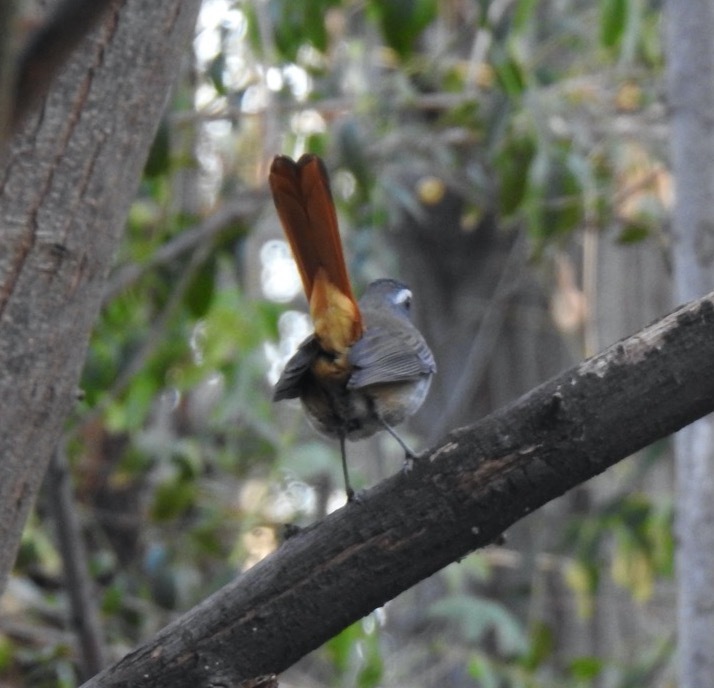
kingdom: Animalia
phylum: Chordata
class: Aves
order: Passeriformes
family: Muscicapidae
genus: Cossypha
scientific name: Cossypha caffra
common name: Cape robin-chat
